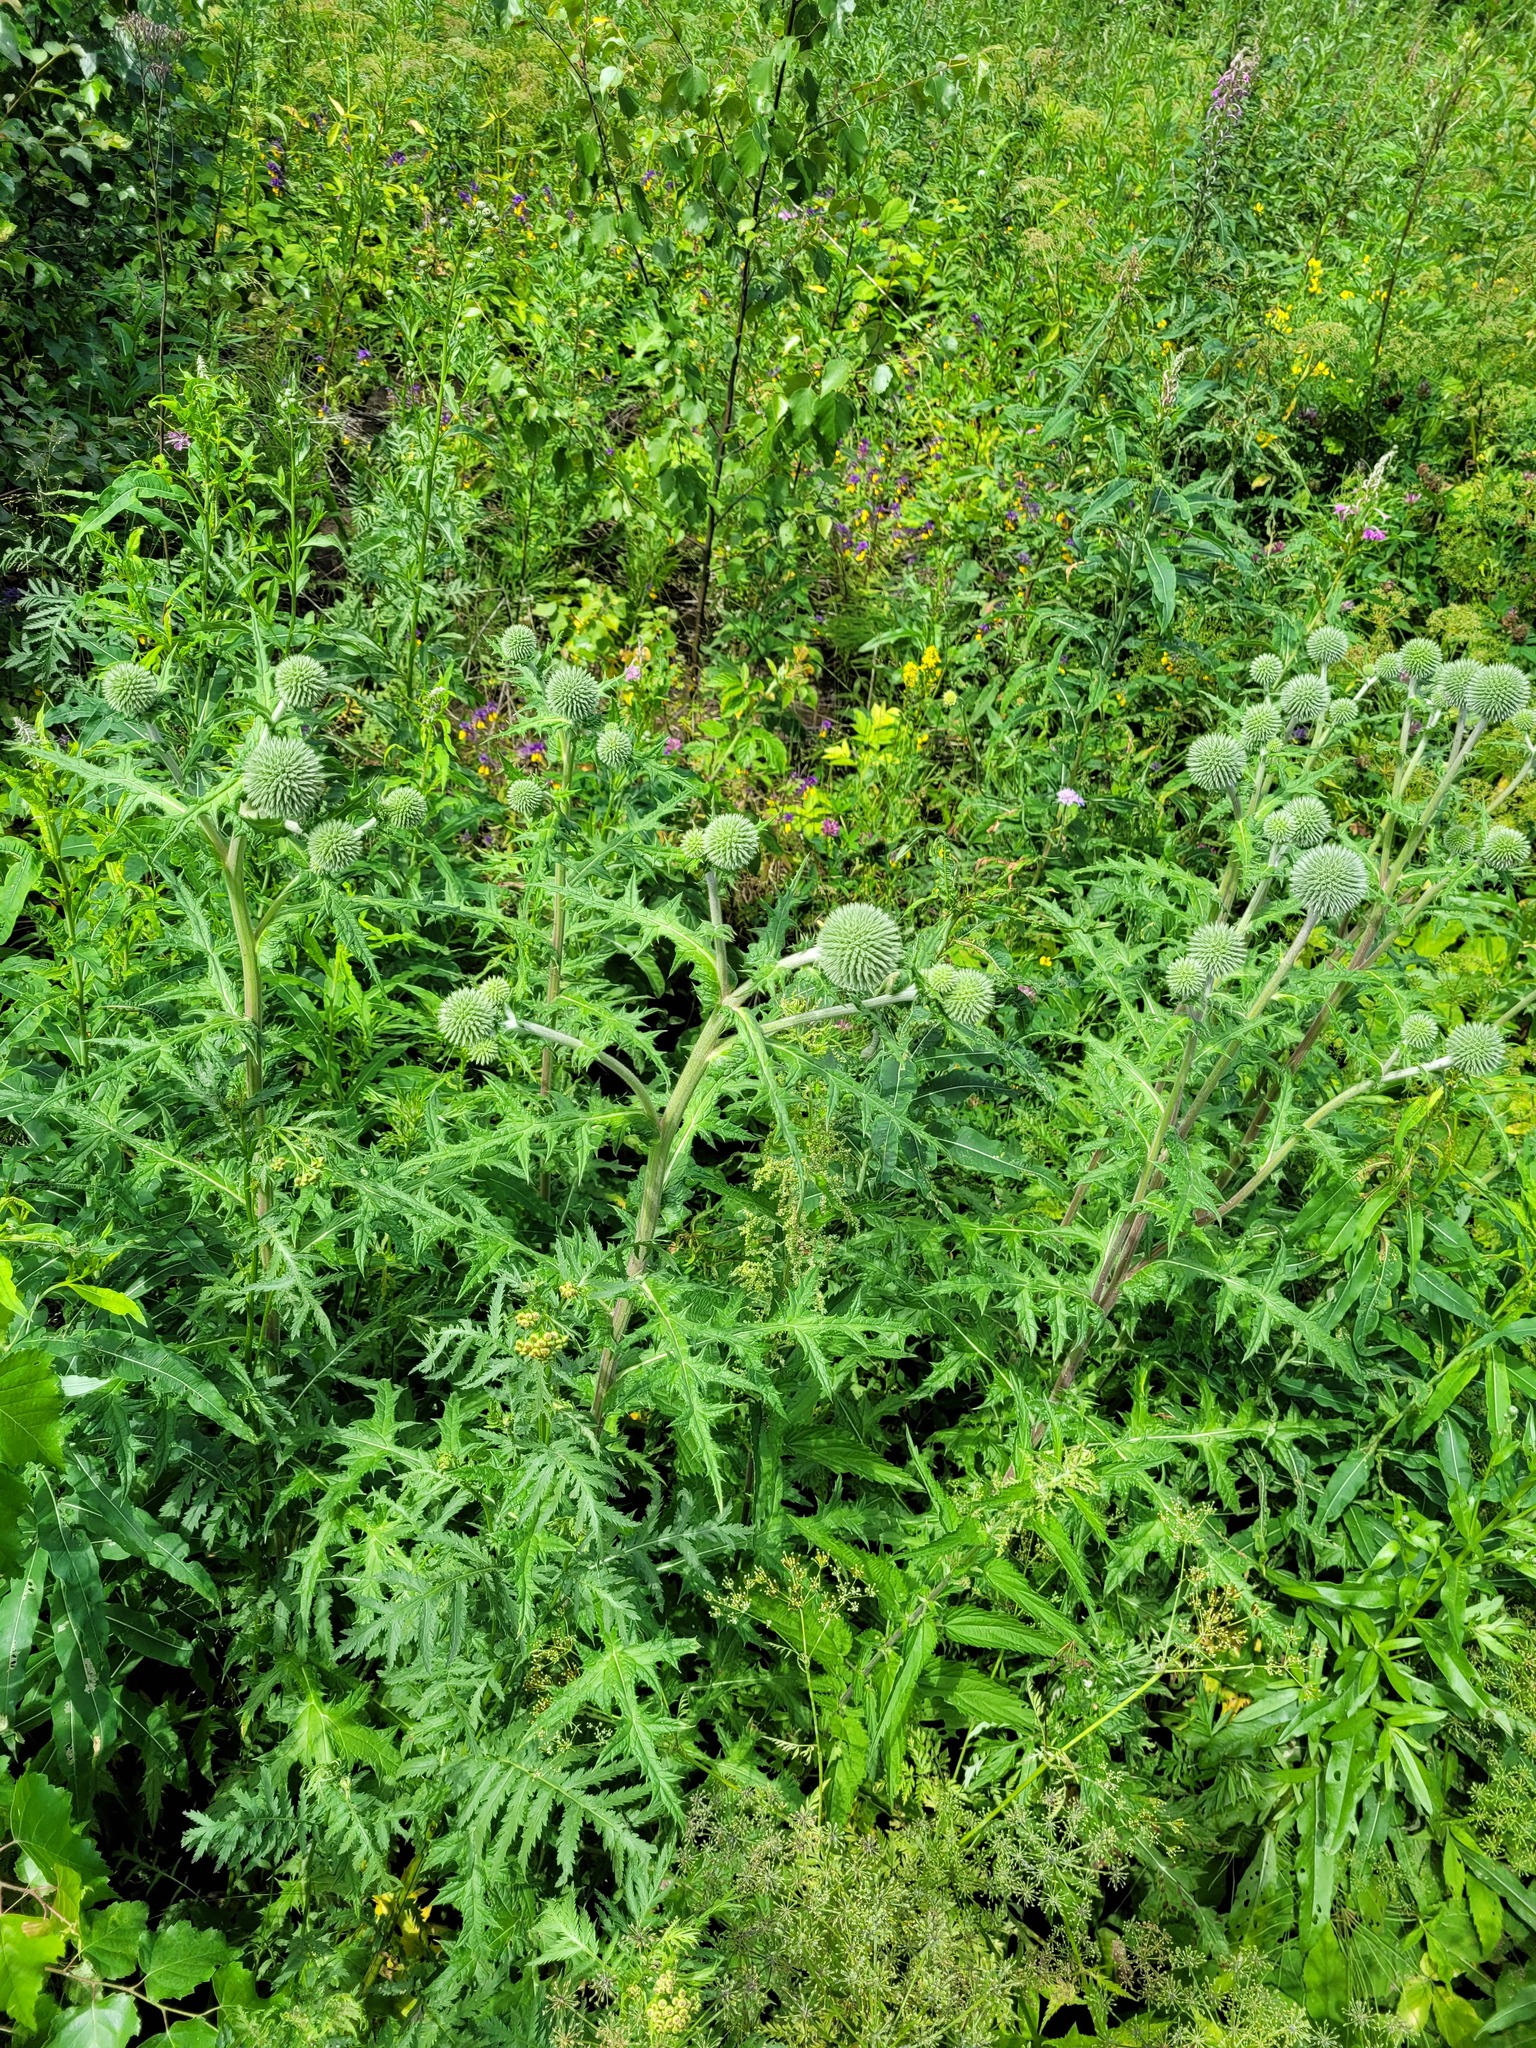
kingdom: Plantae
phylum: Tracheophyta
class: Magnoliopsida
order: Asterales
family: Asteraceae
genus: Echinops
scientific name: Echinops sphaerocephalus
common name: Glandular globe-thistle
